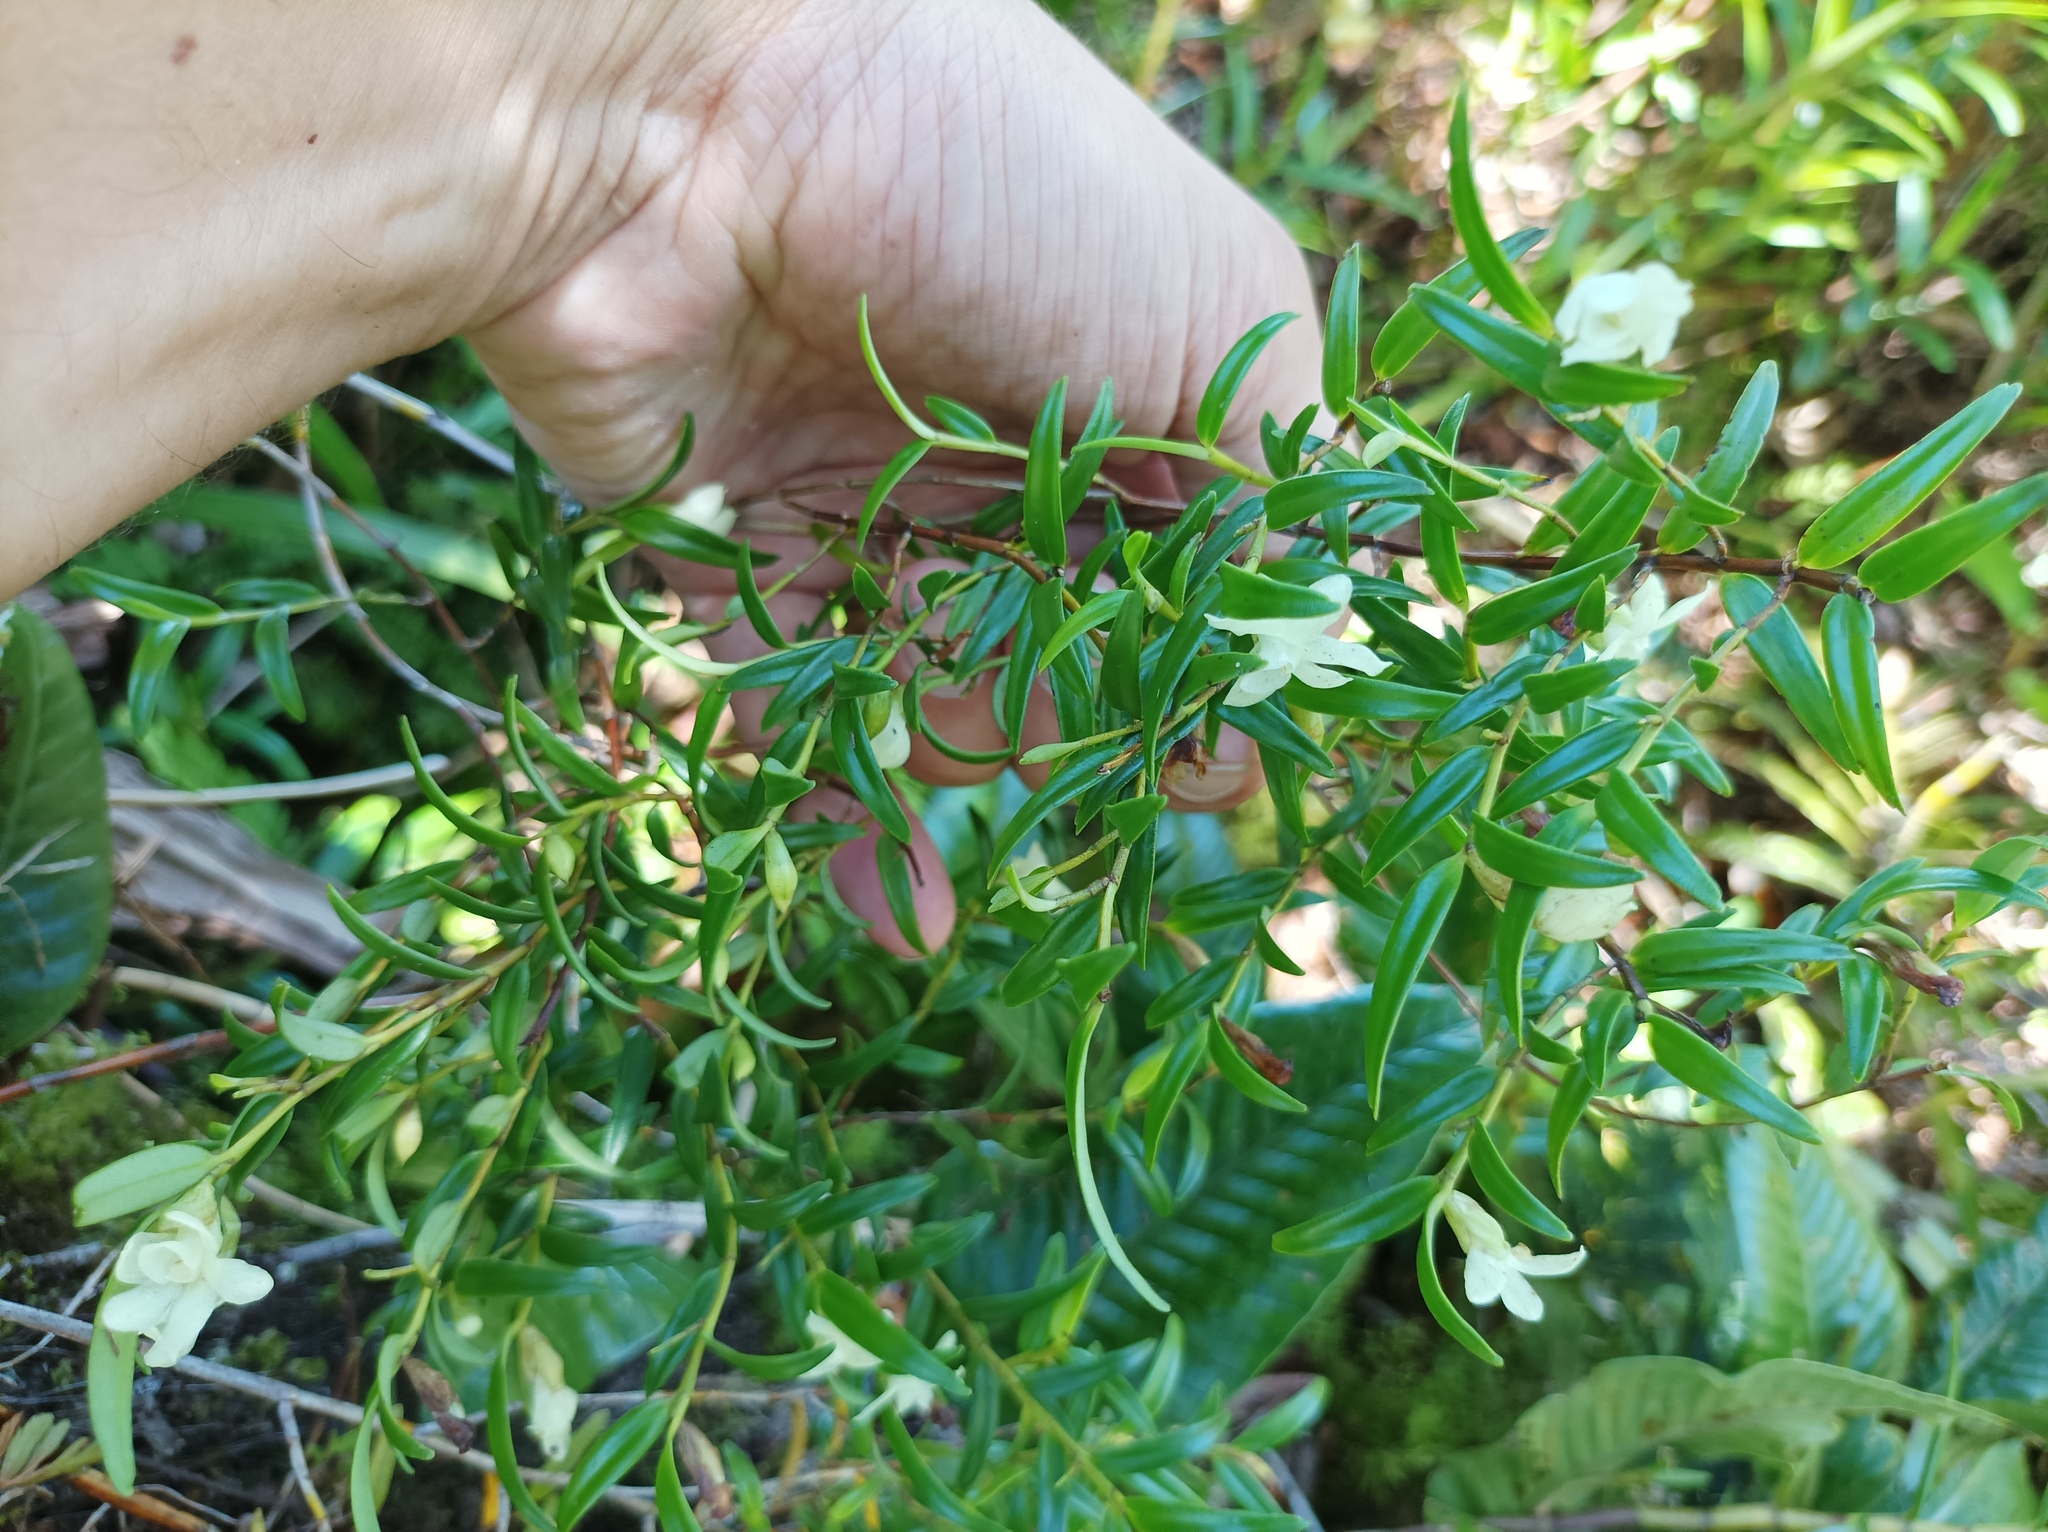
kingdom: Plantae
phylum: Tracheophyta
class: Liliopsida
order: Asparagales
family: Orchidaceae
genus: Glomera
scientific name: Glomera macdonaldii
